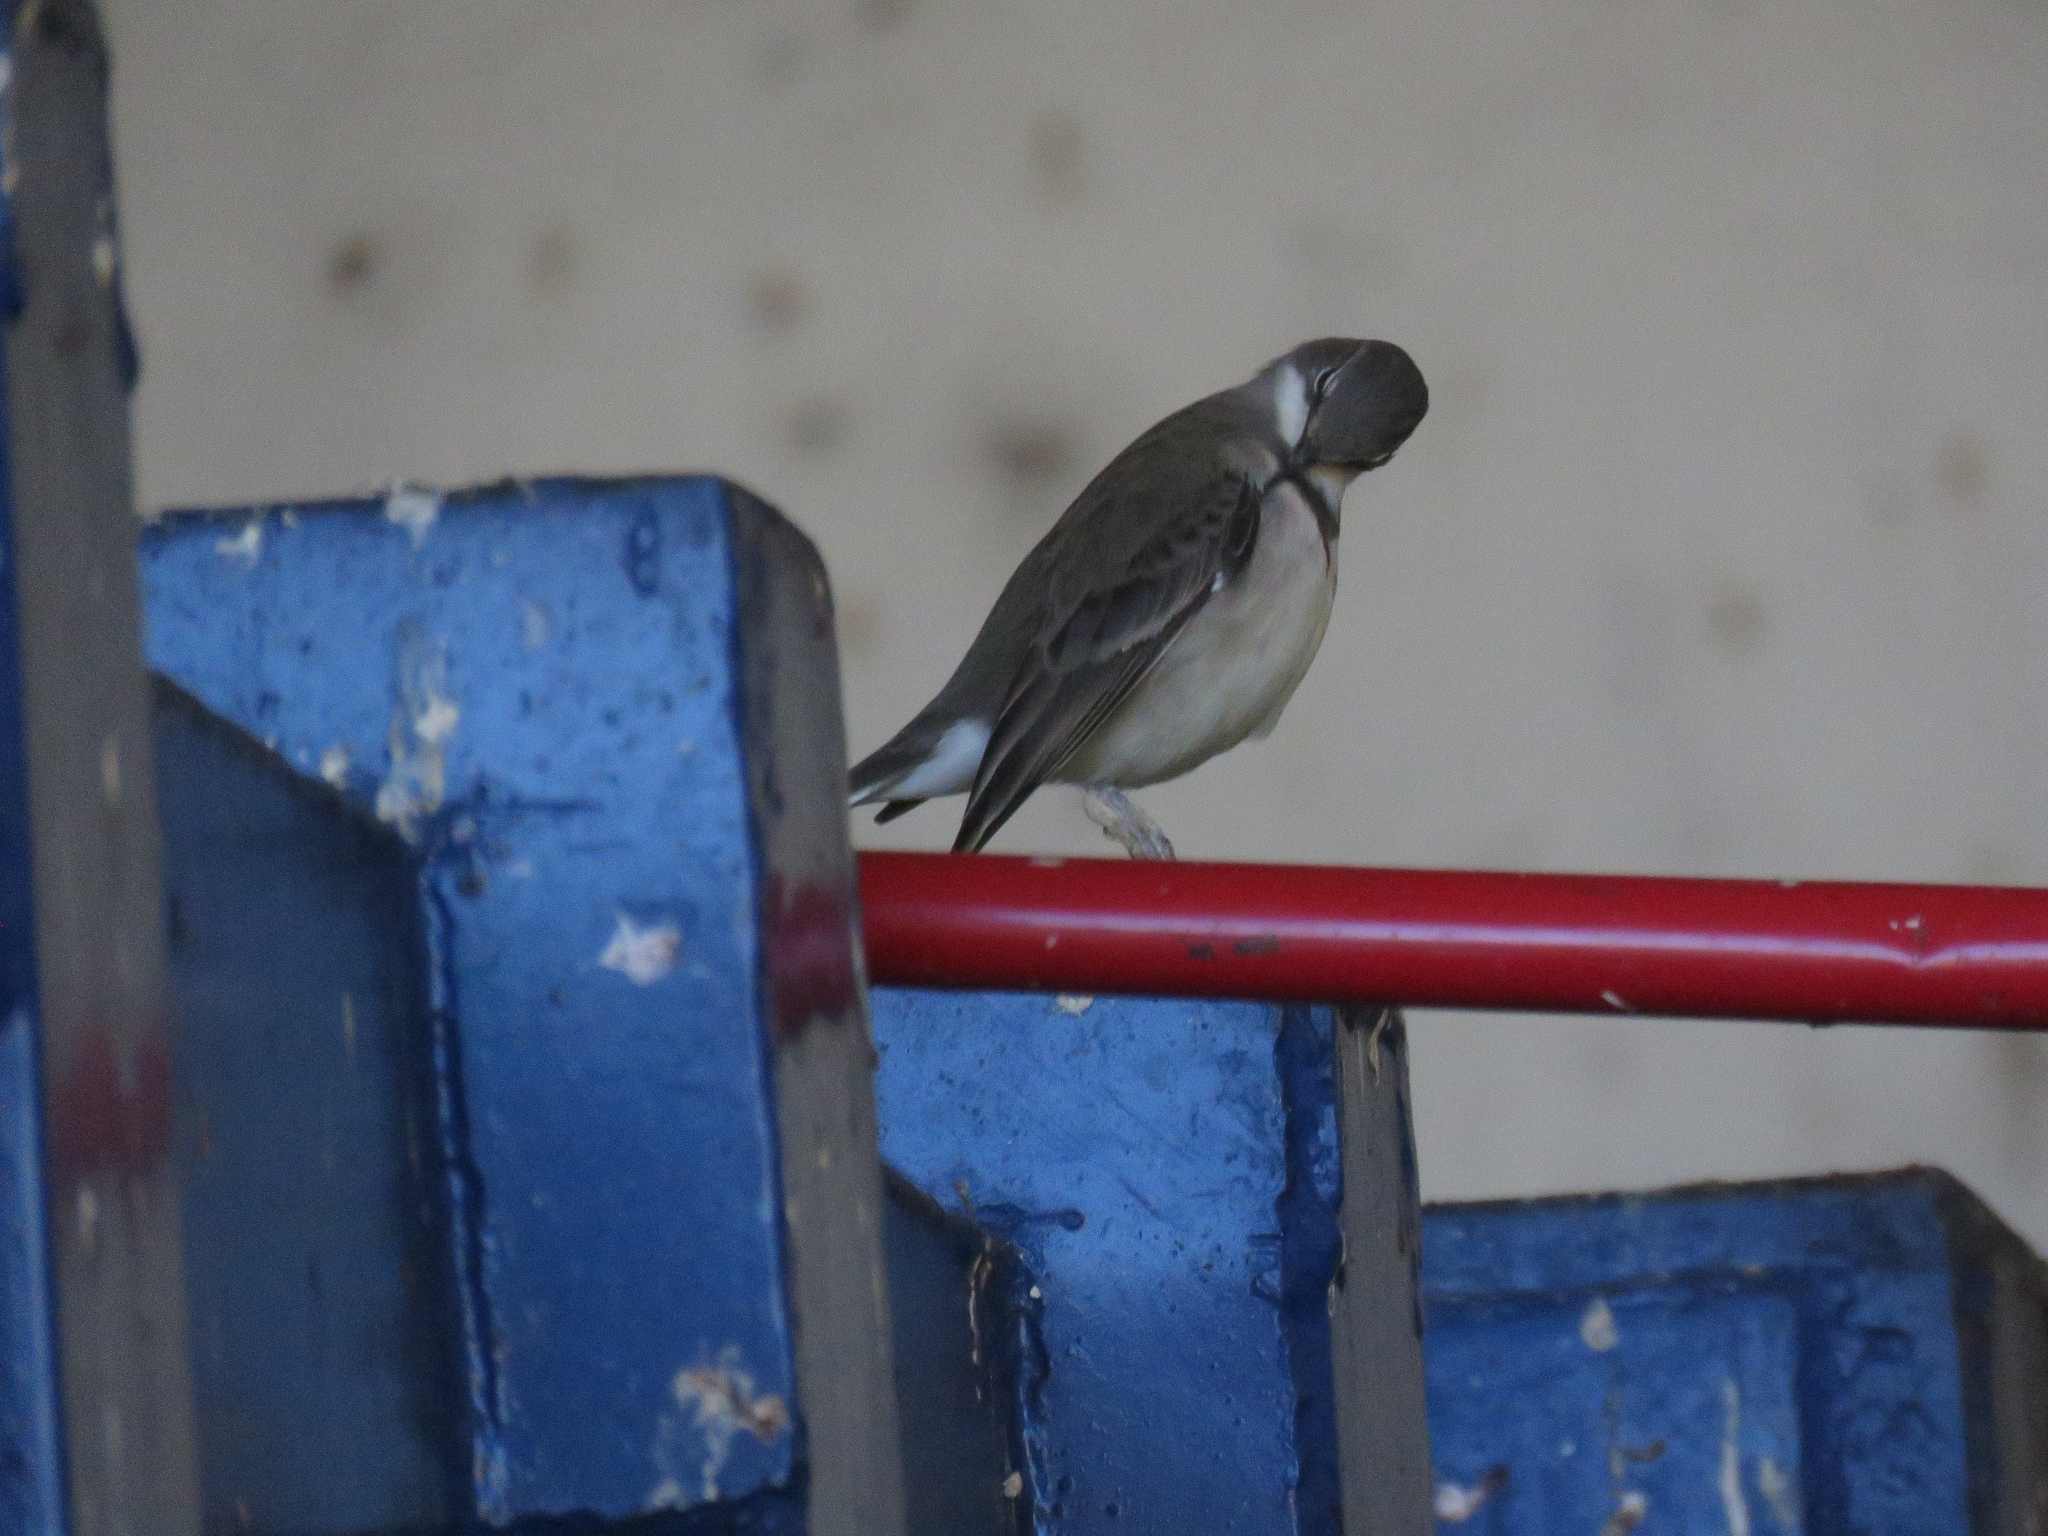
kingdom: Animalia
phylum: Chordata
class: Aves
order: Passeriformes
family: Motacillidae
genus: Motacilla
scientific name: Motacilla capensis
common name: Cape wagtail
